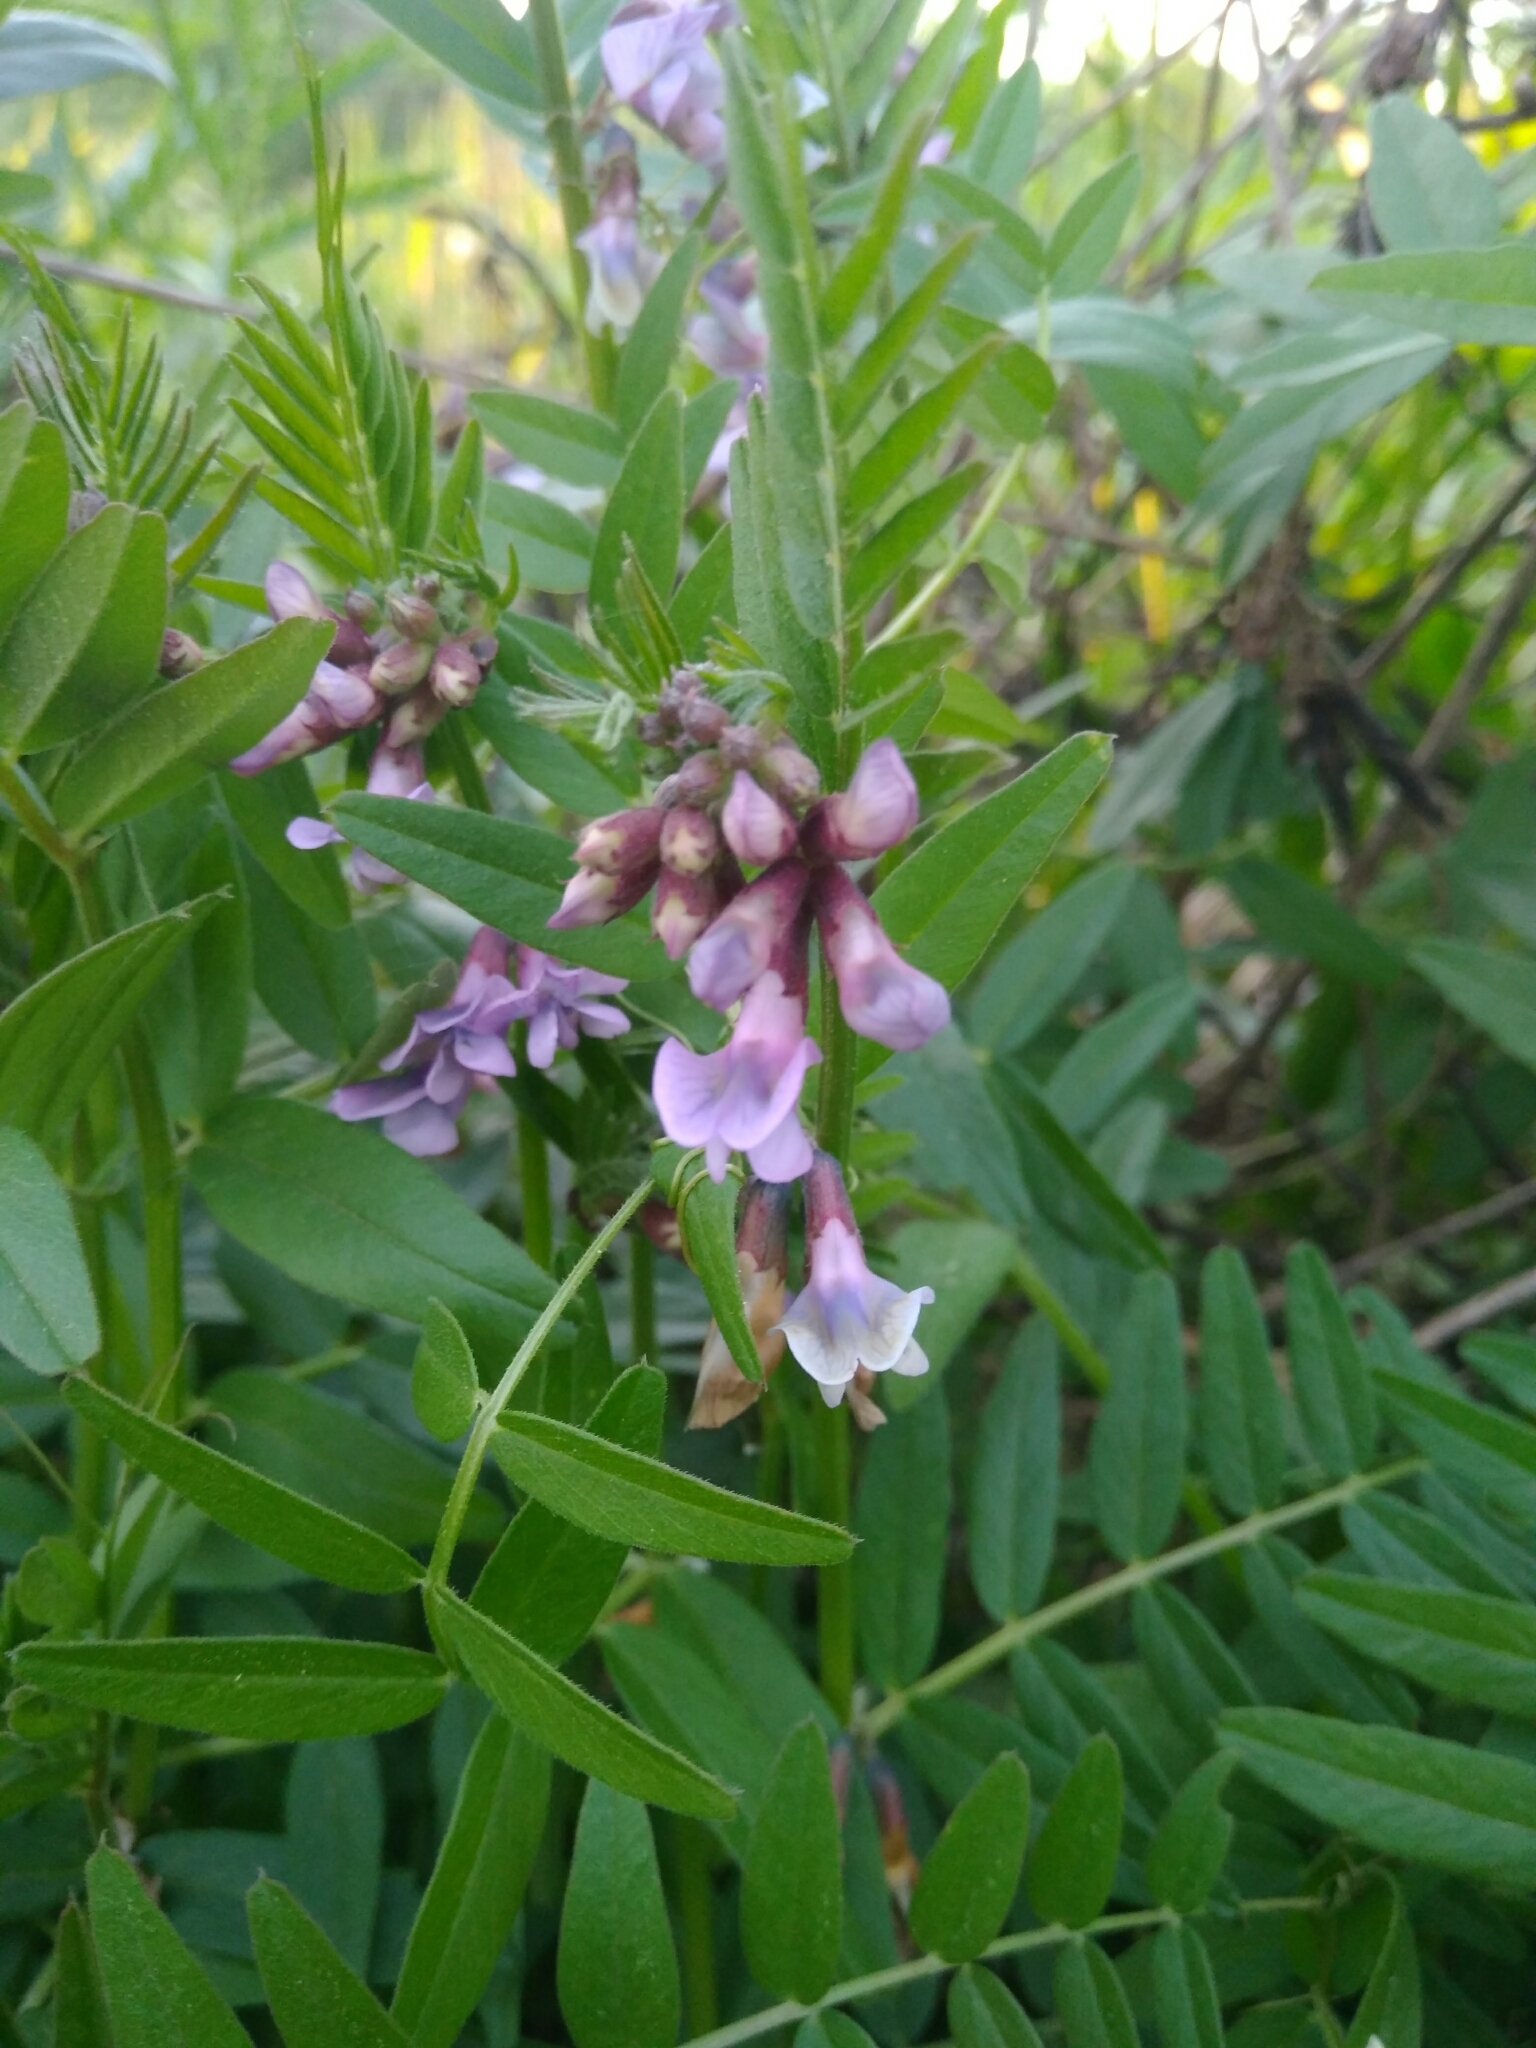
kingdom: Plantae
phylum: Tracheophyta
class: Magnoliopsida
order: Fabales
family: Fabaceae
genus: Vicia
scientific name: Vicia sepium
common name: Bush vetch
